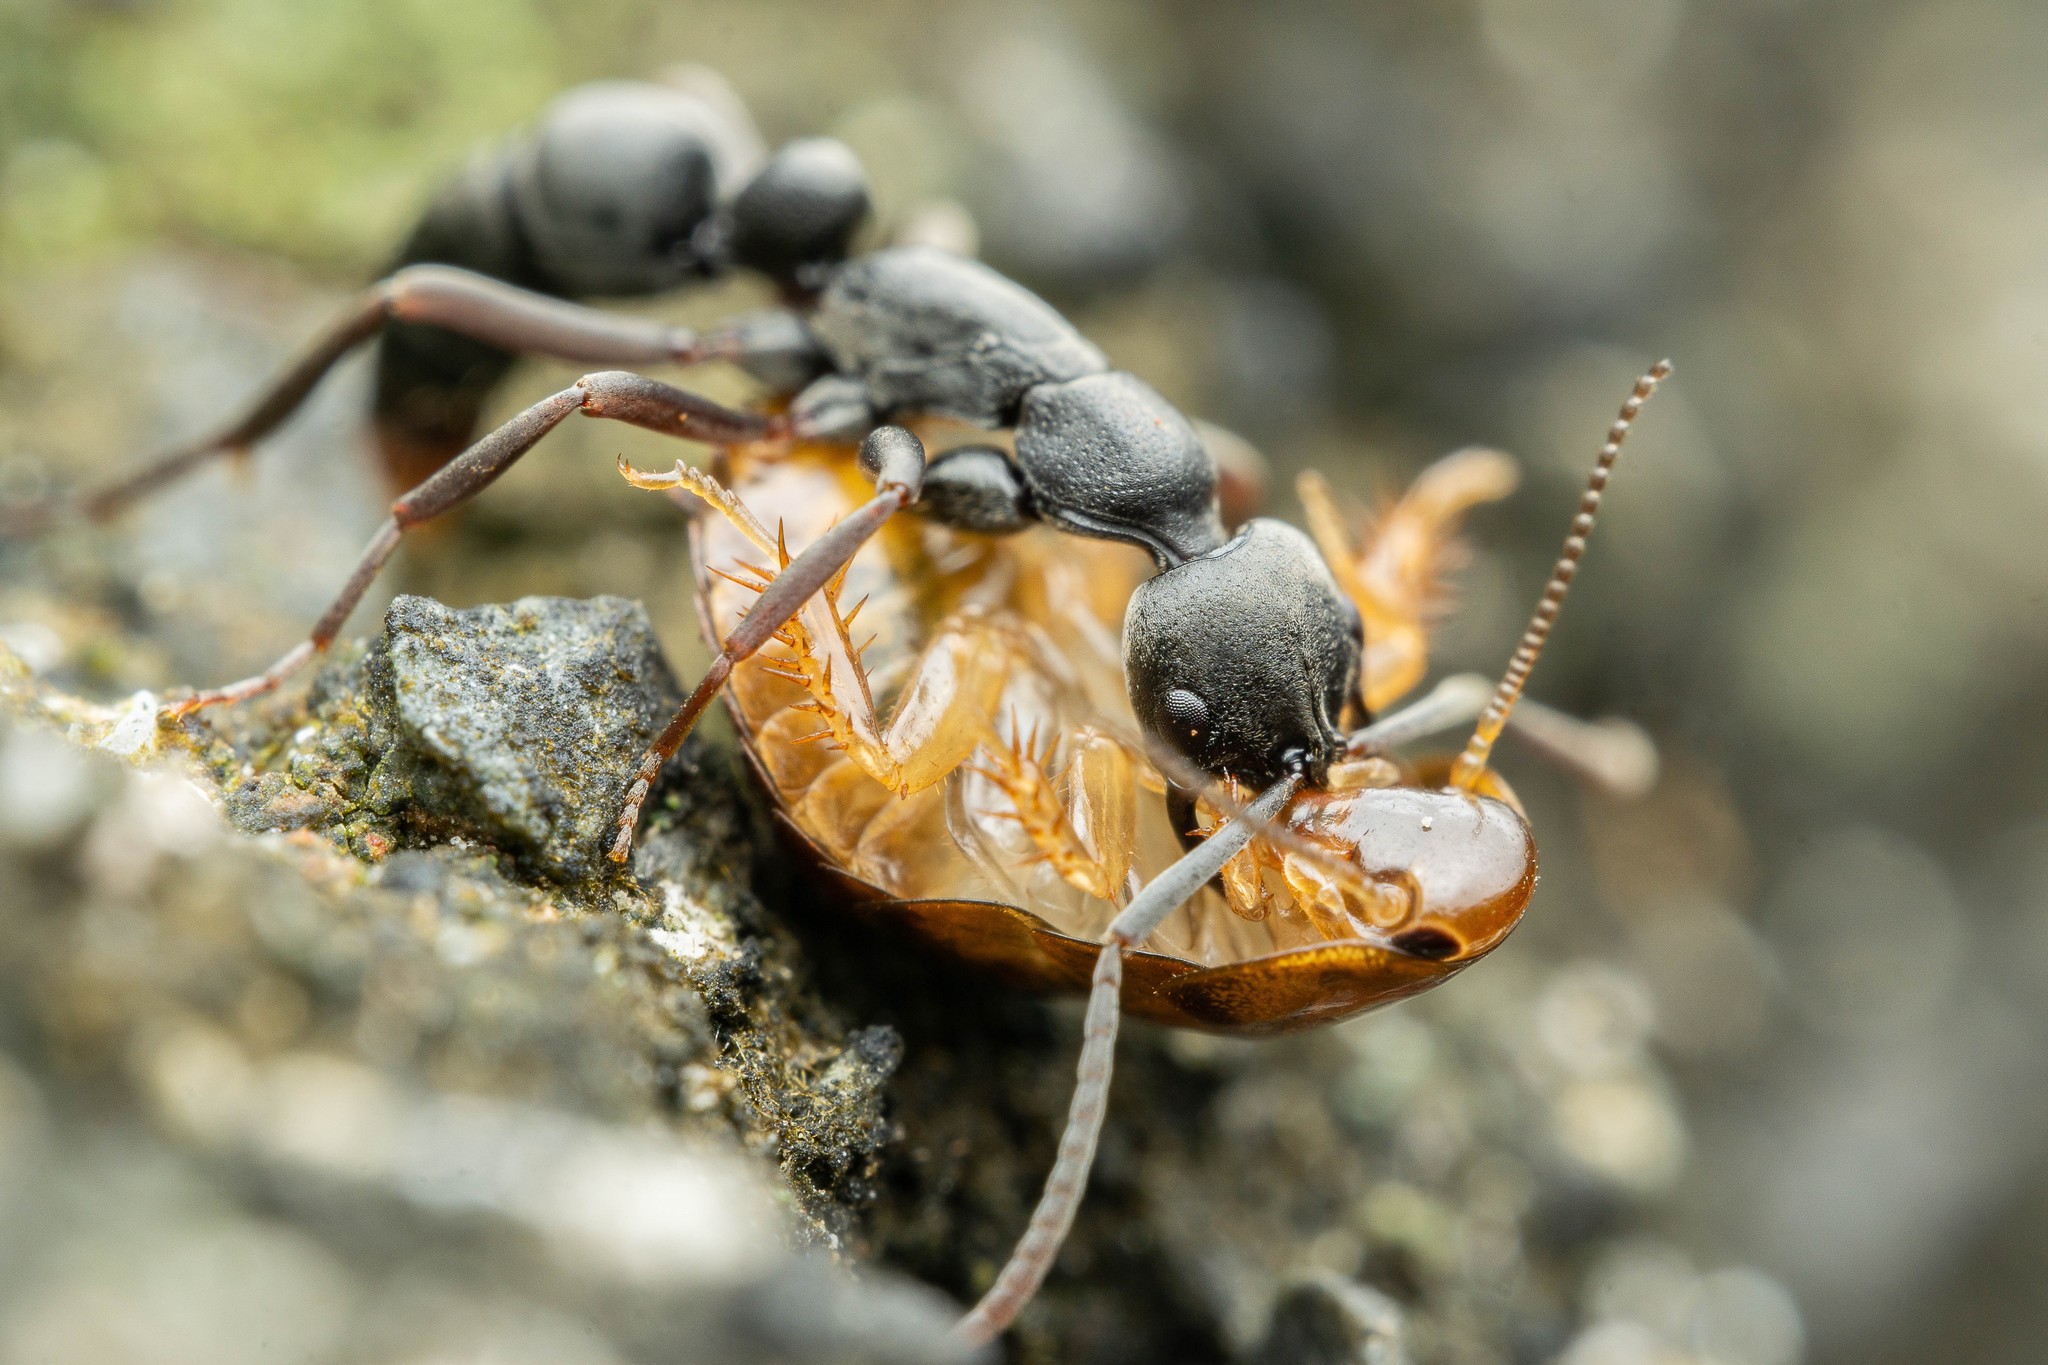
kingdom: Animalia
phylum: Arthropoda
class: Insecta
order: Hymenoptera
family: Formicidae
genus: Leptogenys
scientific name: Leptogenys falcigera
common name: Ant
